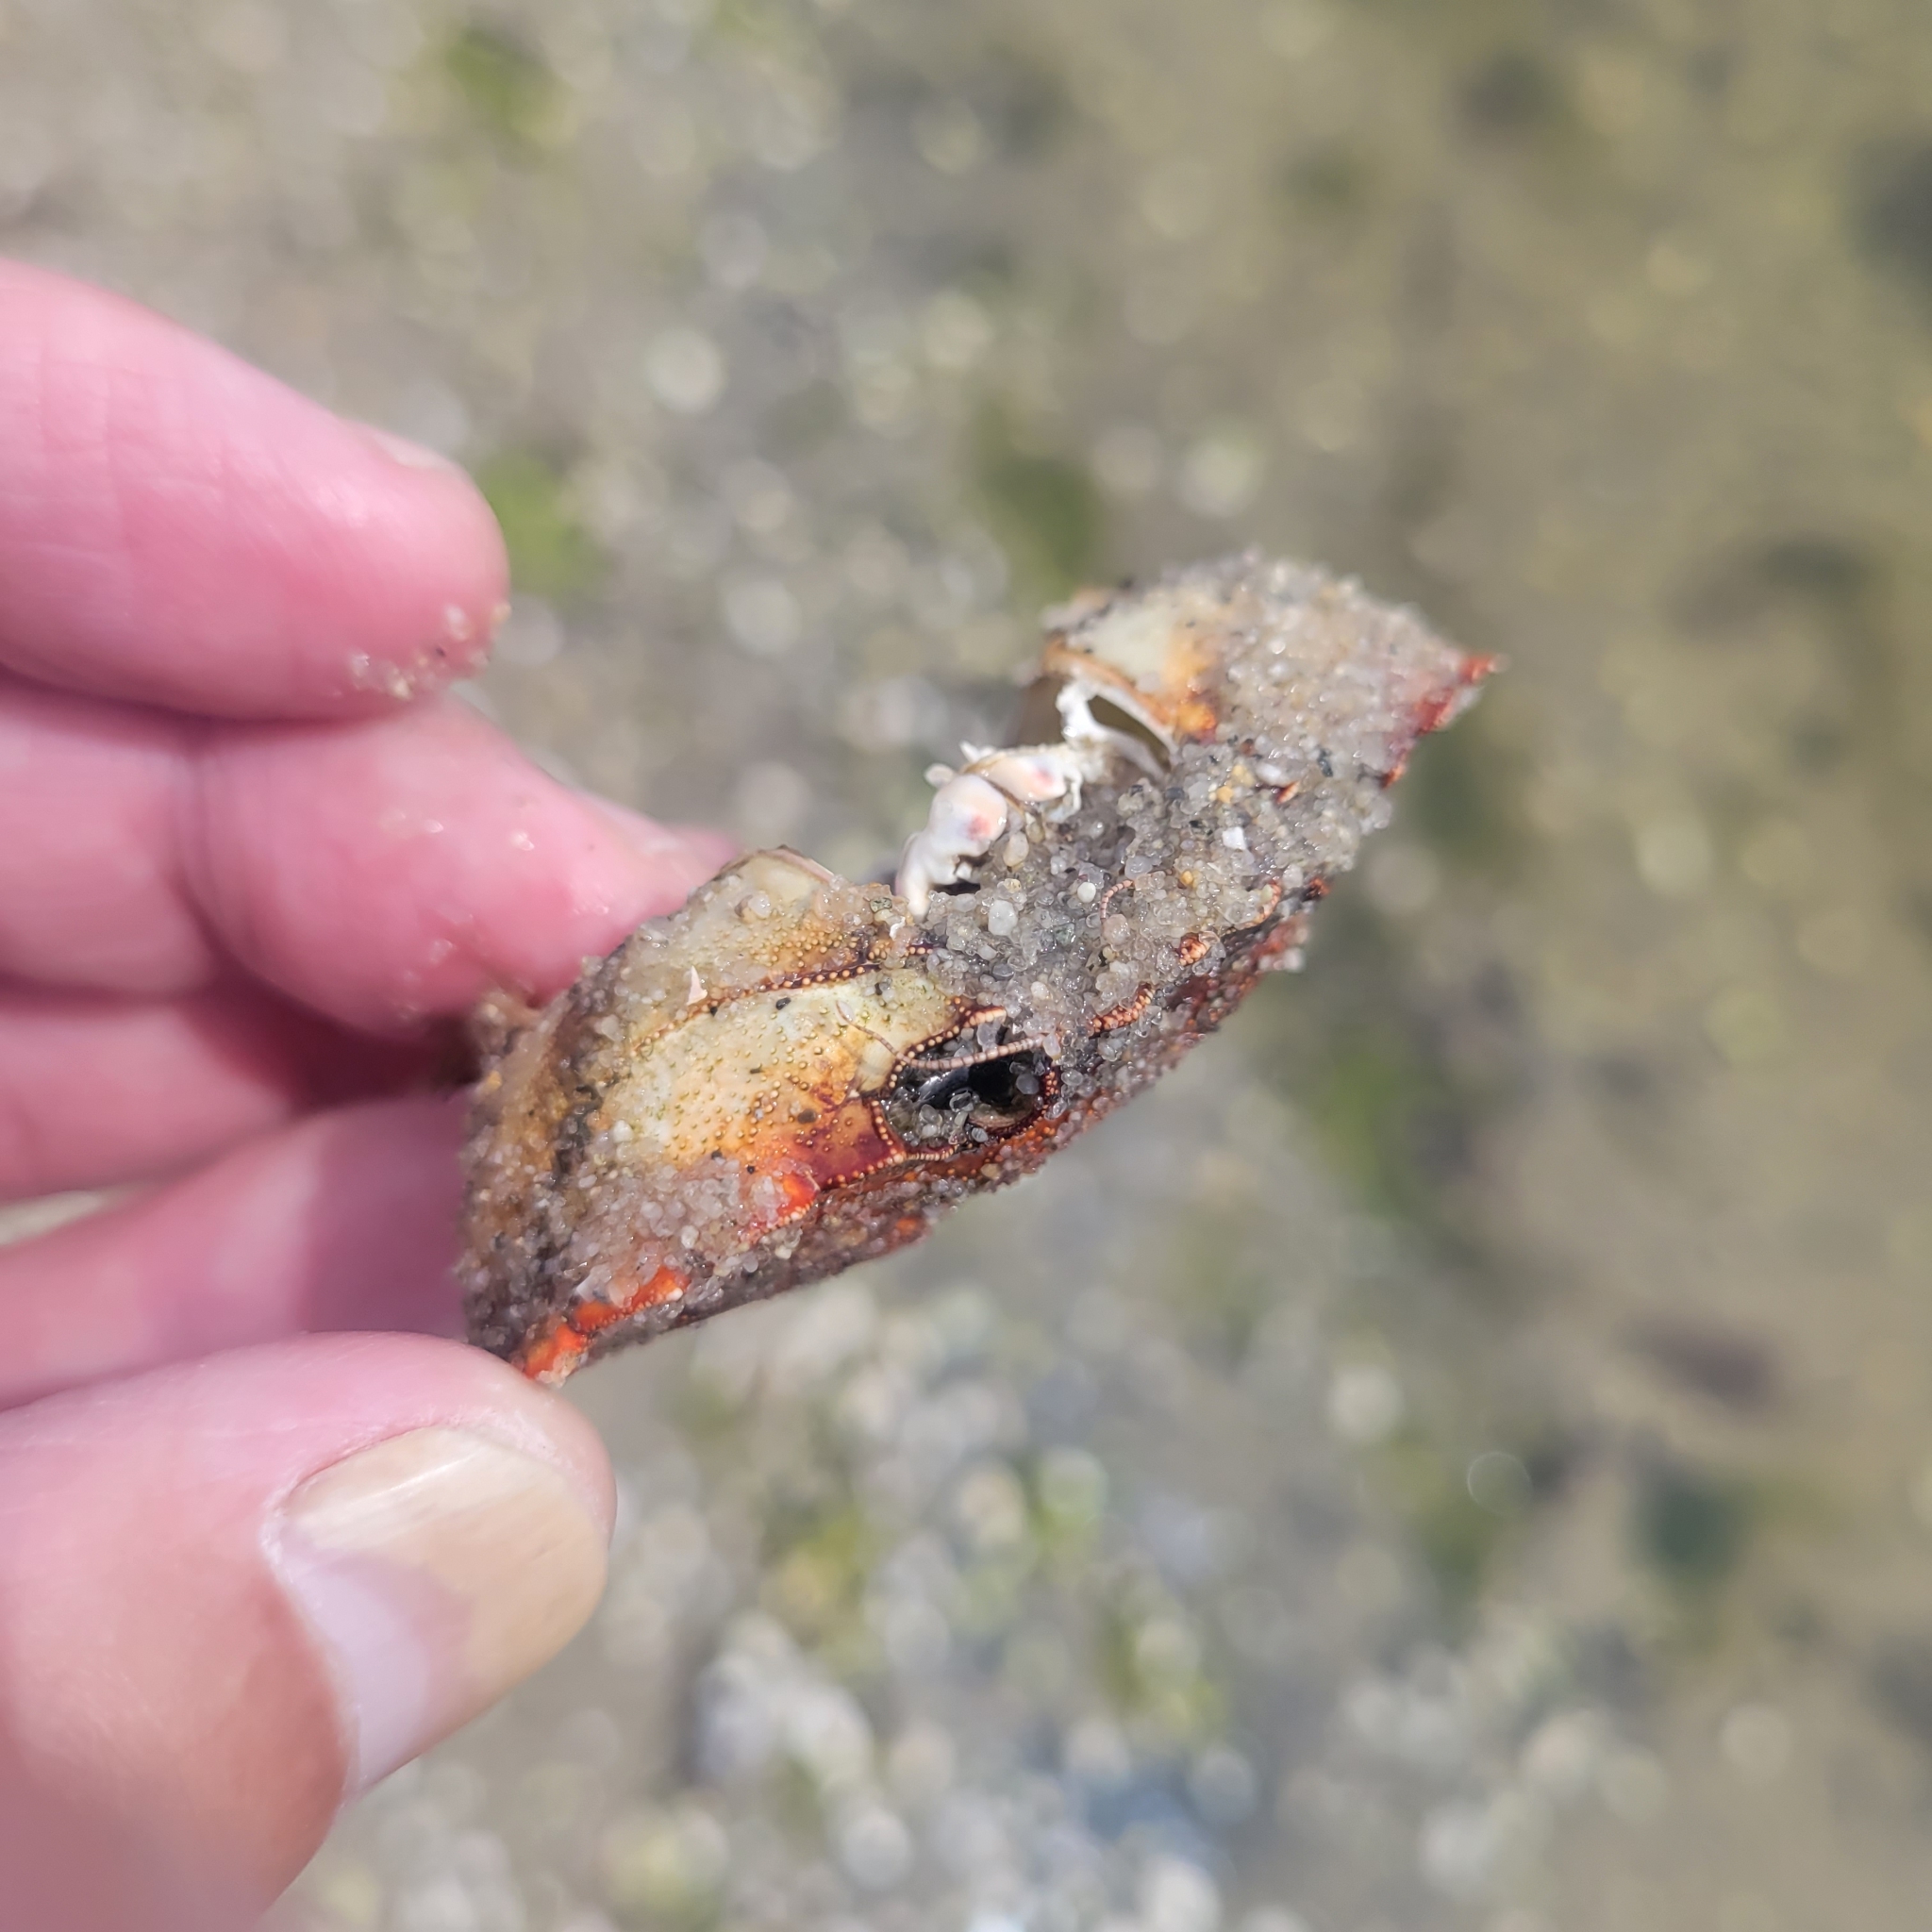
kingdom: Animalia
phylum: Arthropoda
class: Malacostraca
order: Decapoda
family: Carcinidae
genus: Carcinus
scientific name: Carcinus maenas
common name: European green crab
